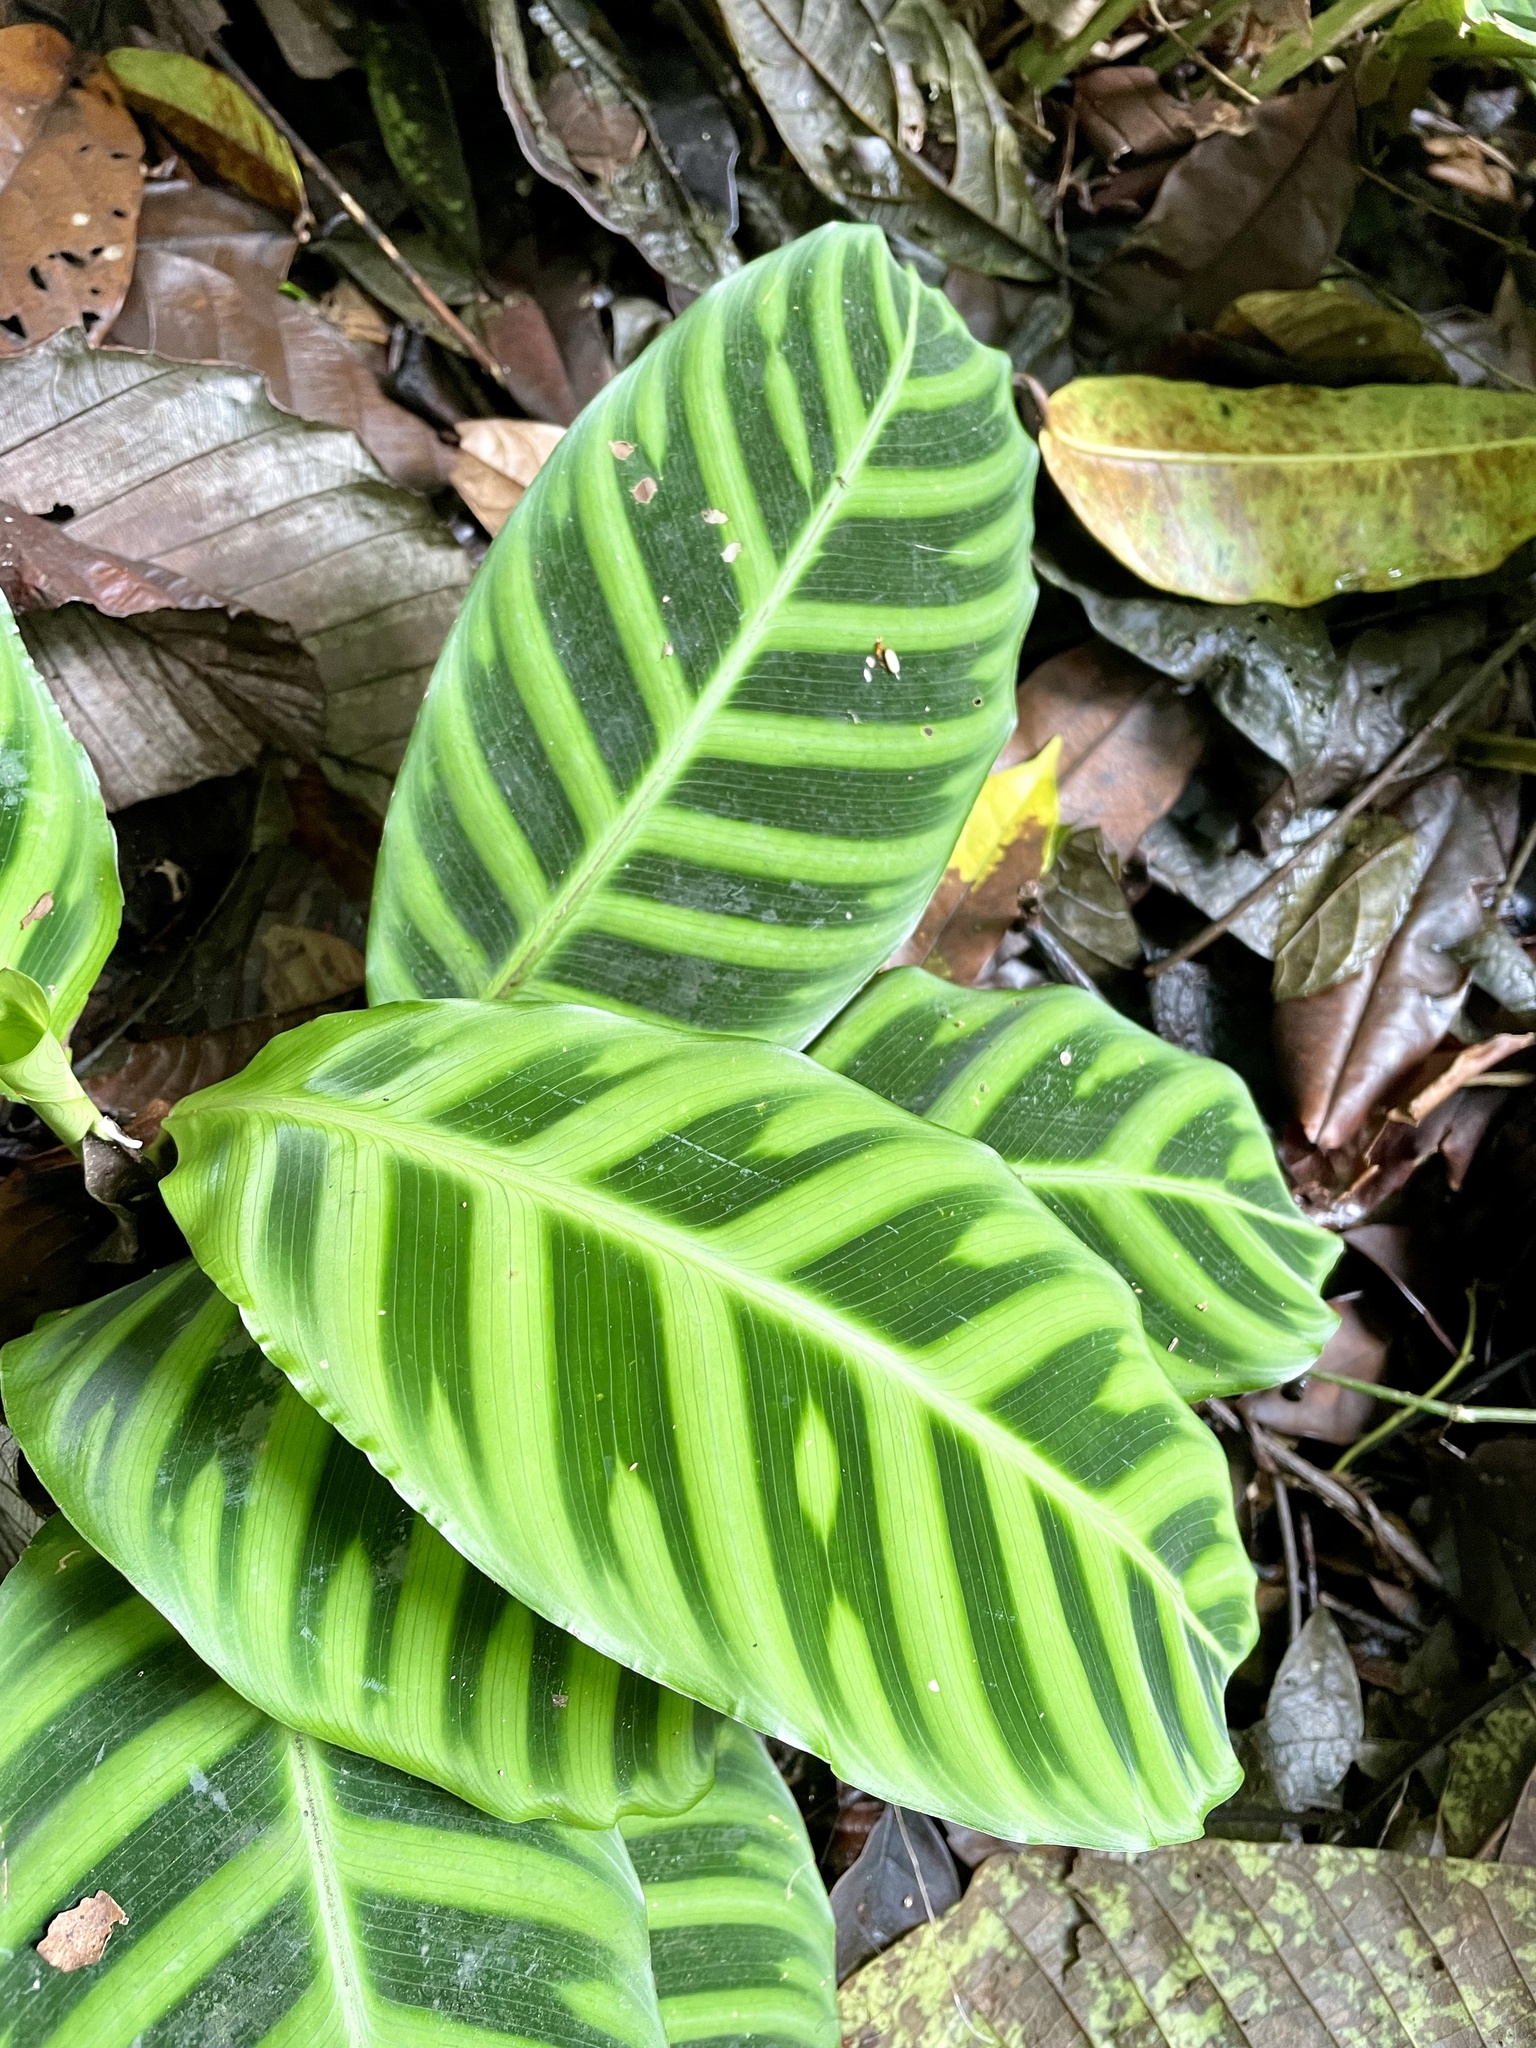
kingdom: Plantae
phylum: Tracheophyta
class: Liliopsida
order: Zingiberales
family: Marantaceae
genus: Goeppertia
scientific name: Goeppertia zebrina
